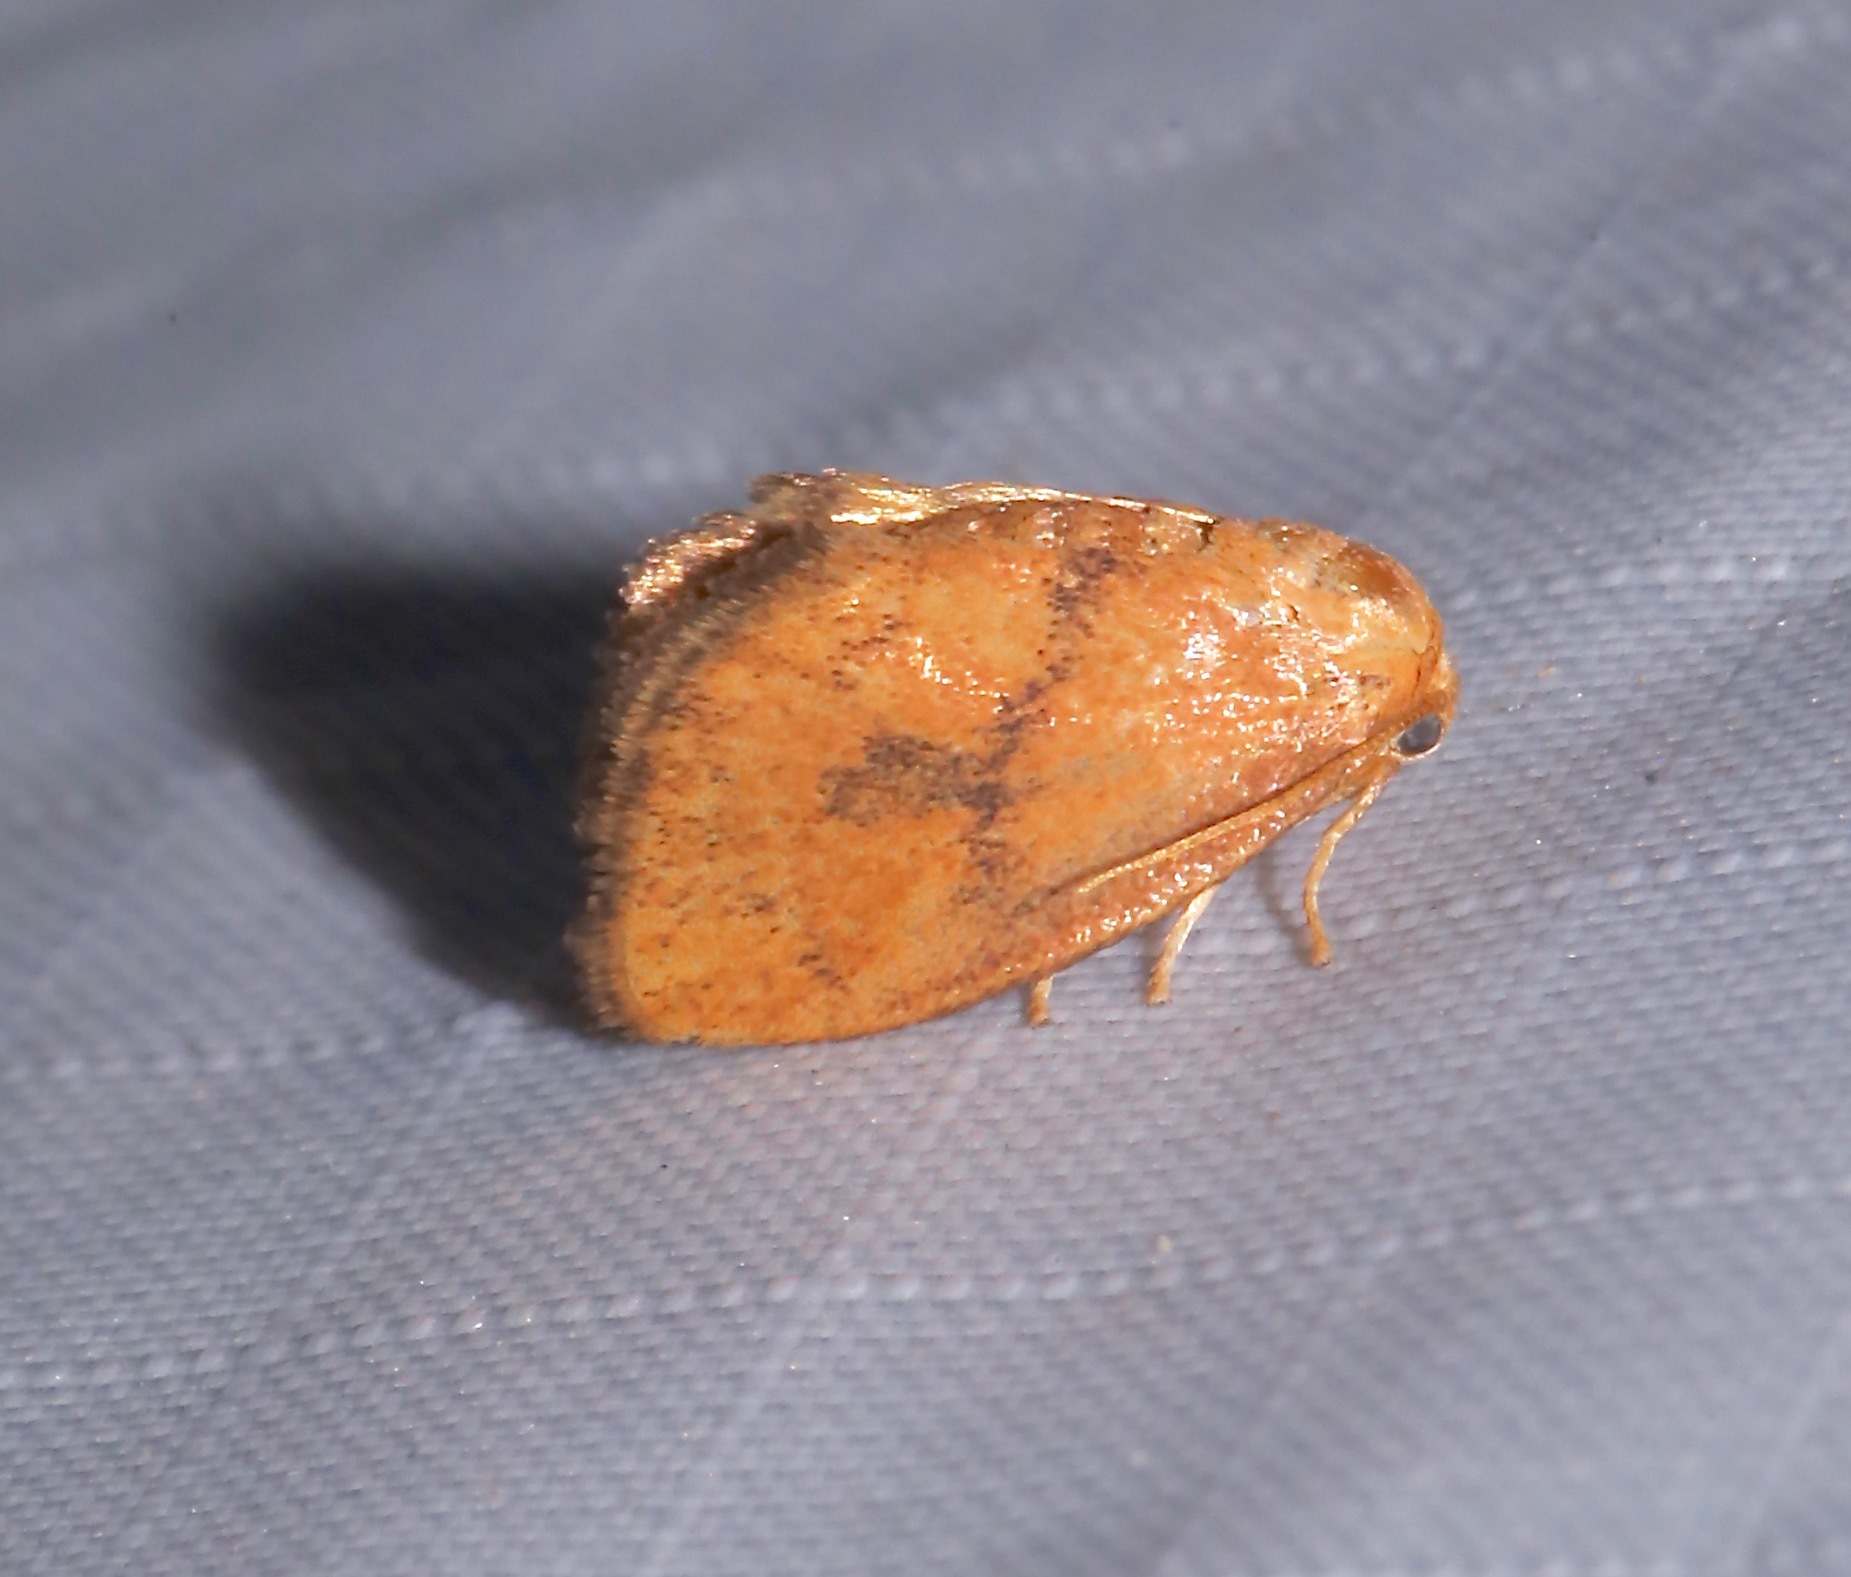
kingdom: Animalia
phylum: Arthropoda
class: Insecta
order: Lepidoptera
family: Limacodidae
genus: Heterogenea
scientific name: Heterogenea shurtleffi
